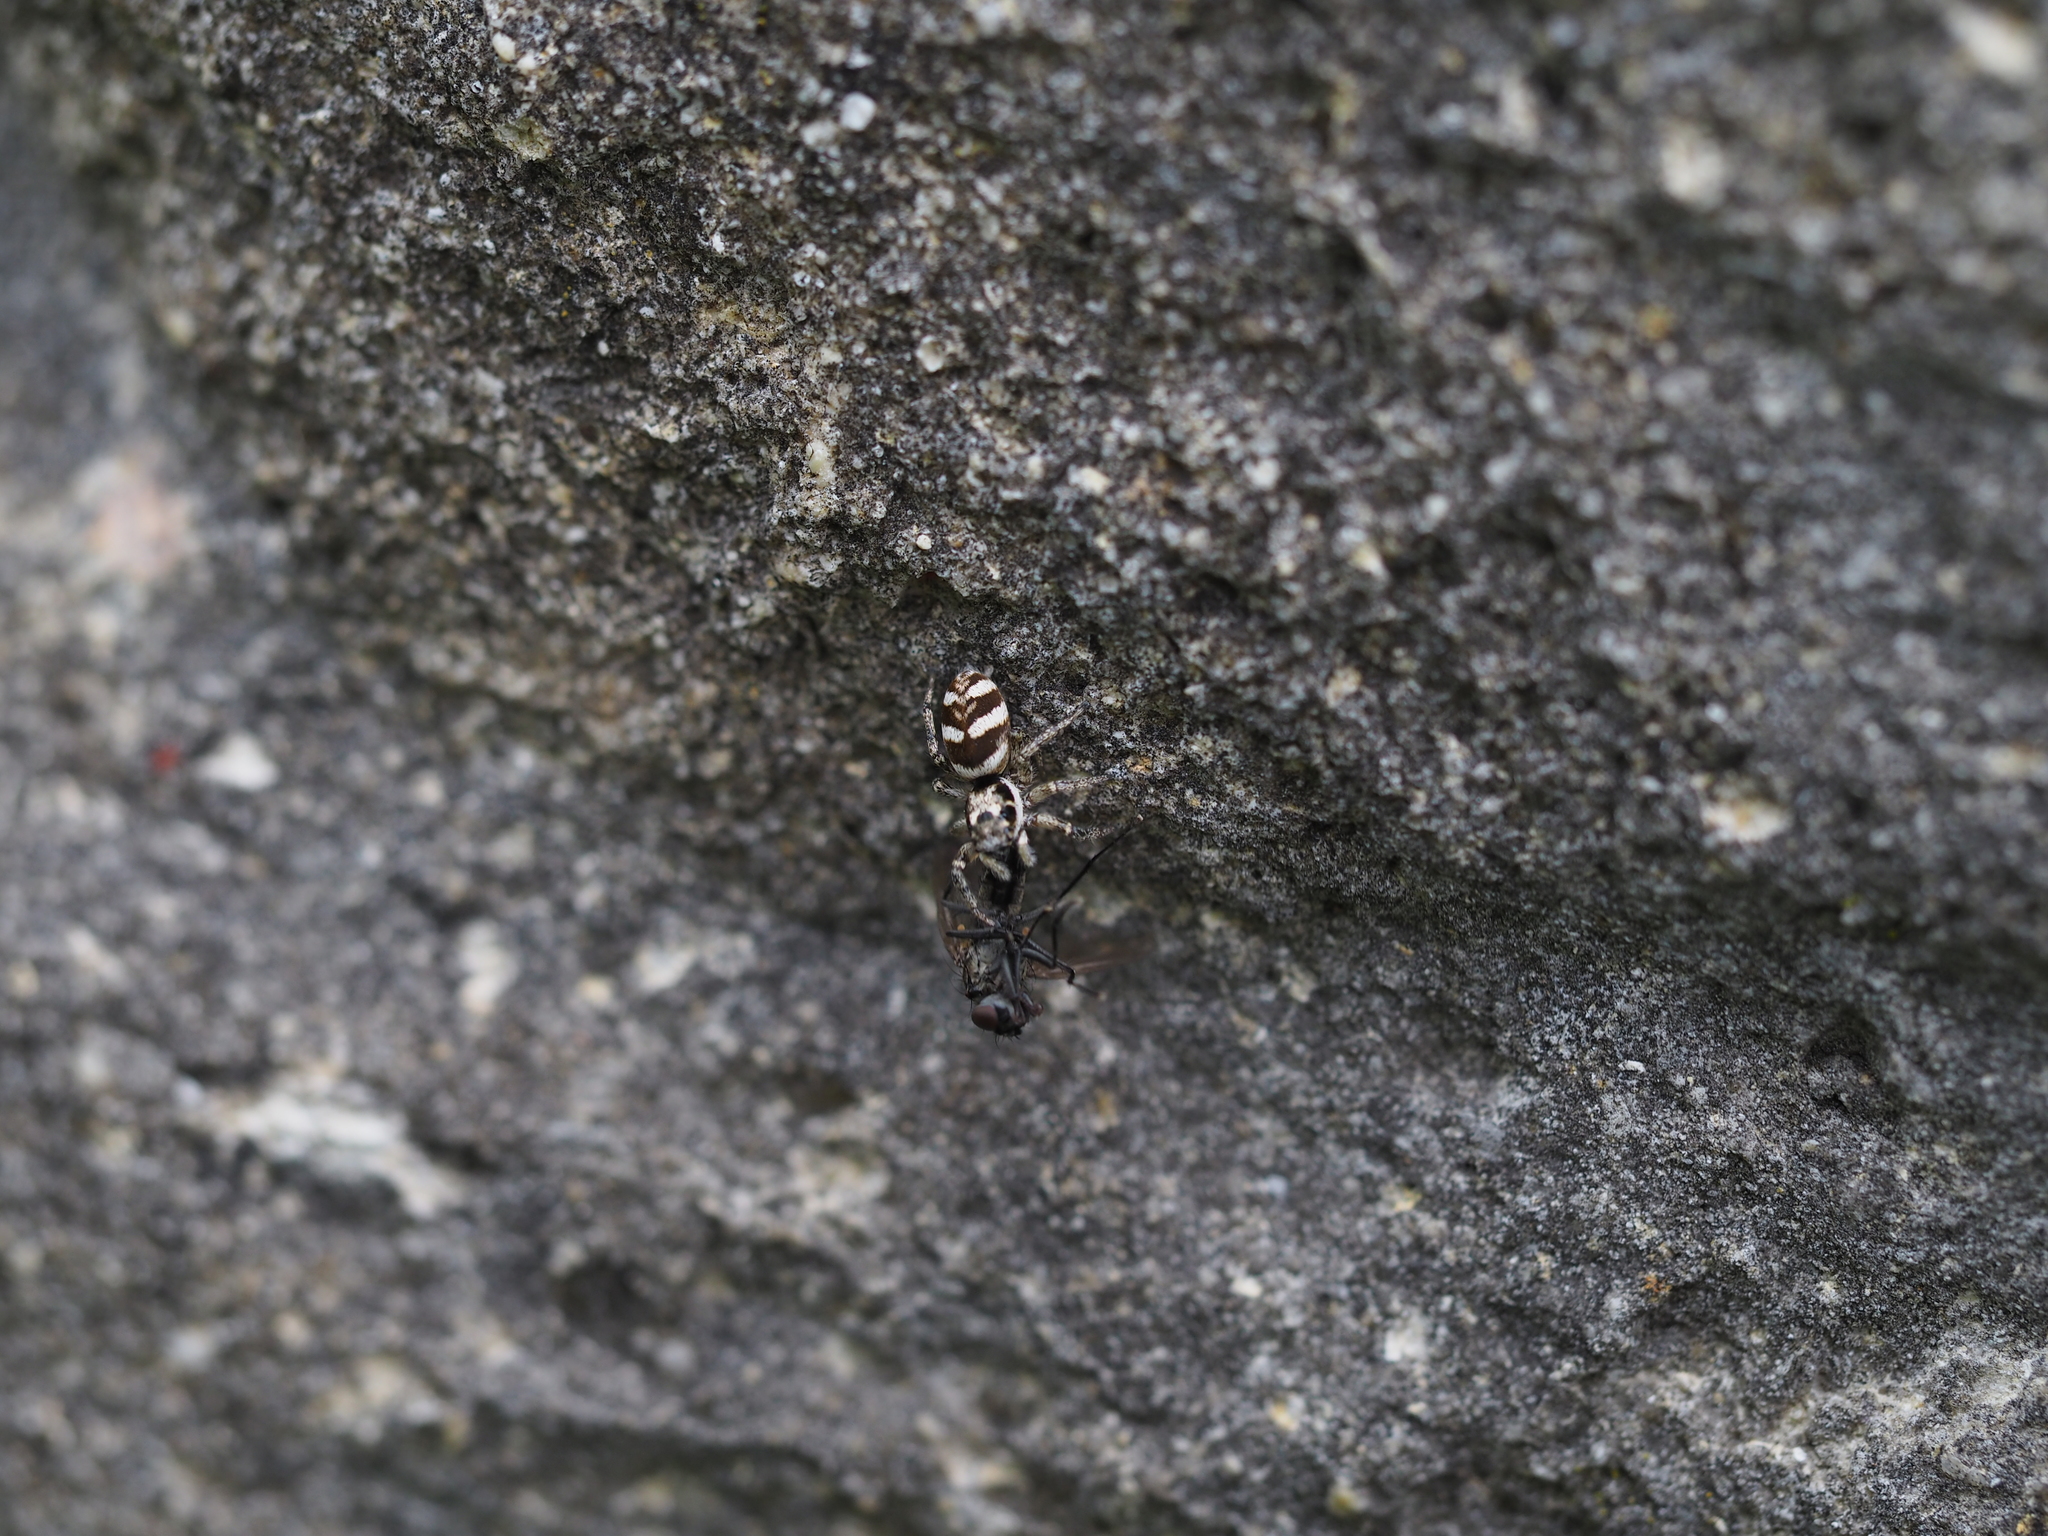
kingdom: Animalia
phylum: Arthropoda
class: Arachnida
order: Araneae
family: Salticidae
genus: Salticus
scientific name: Salticus scenicus
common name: Zebra jumper
